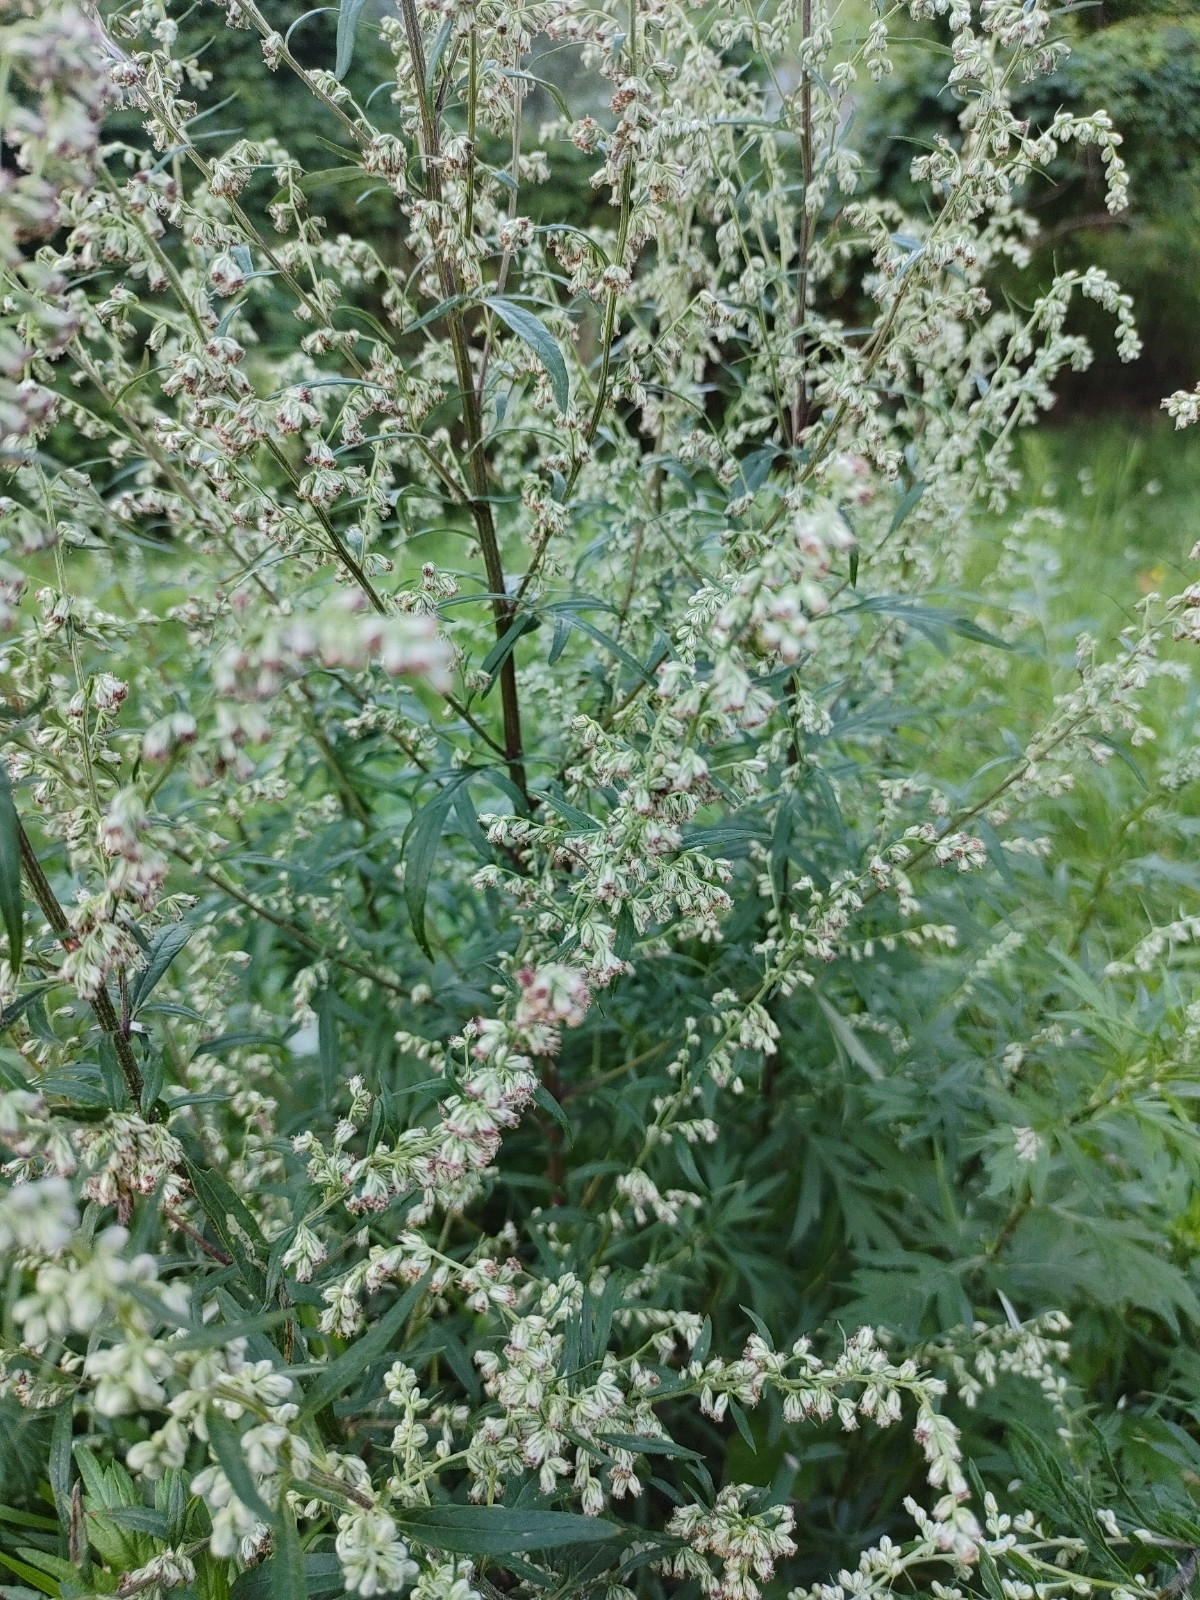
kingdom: Plantae
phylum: Tracheophyta
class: Magnoliopsida
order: Asterales
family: Asteraceae
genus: Artemisia
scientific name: Artemisia vulgaris
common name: Mugwort
